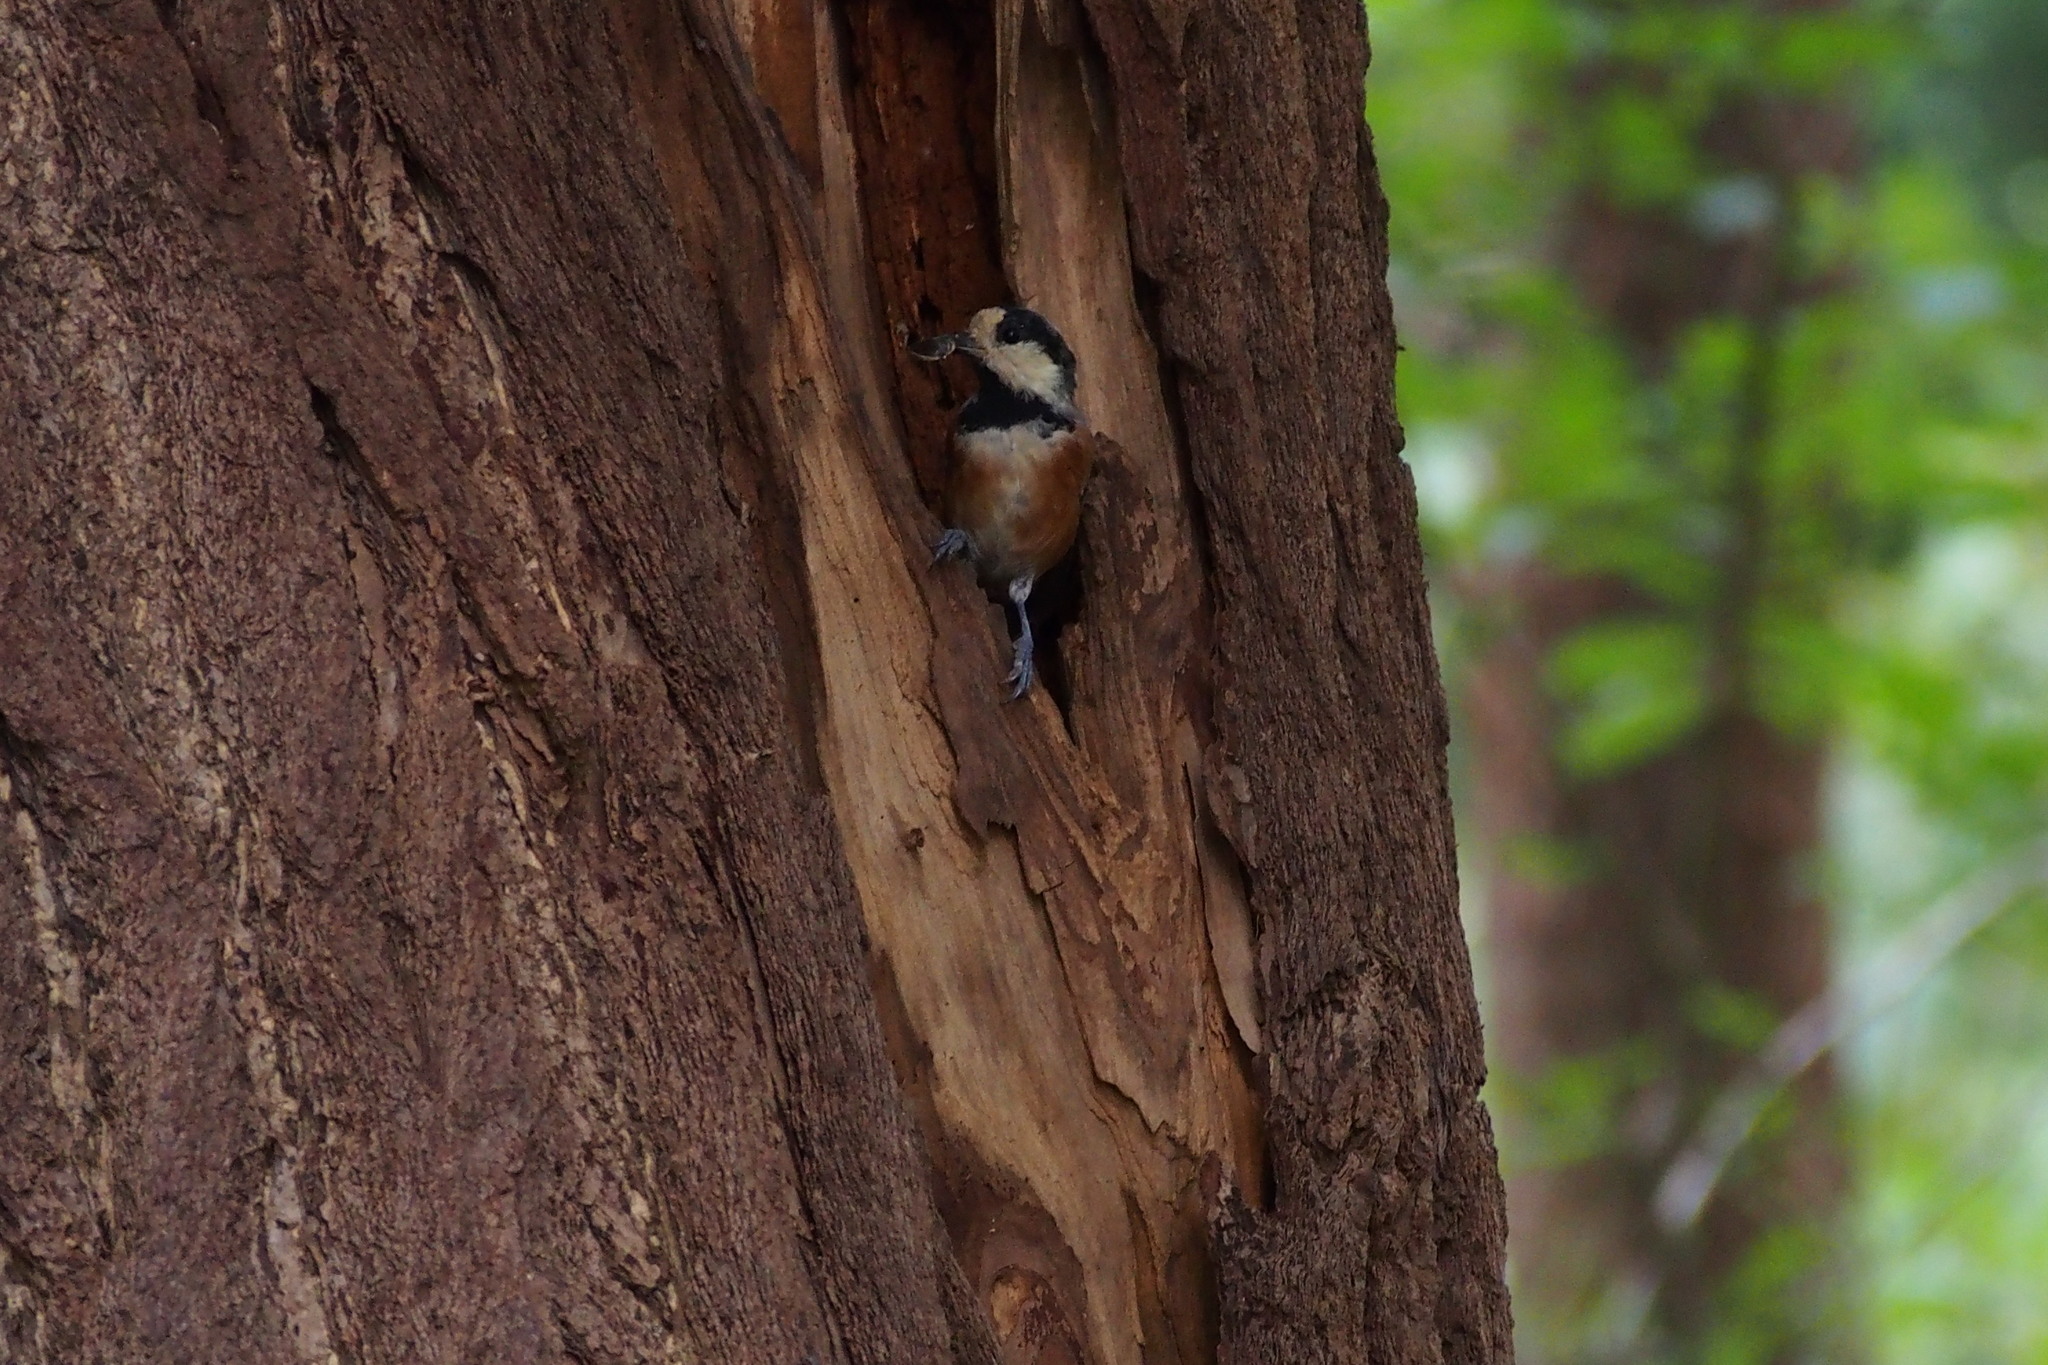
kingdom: Animalia
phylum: Chordata
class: Aves
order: Passeriformes
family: Paridae
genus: Poecile
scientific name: Poecile varius
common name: Varied tit
